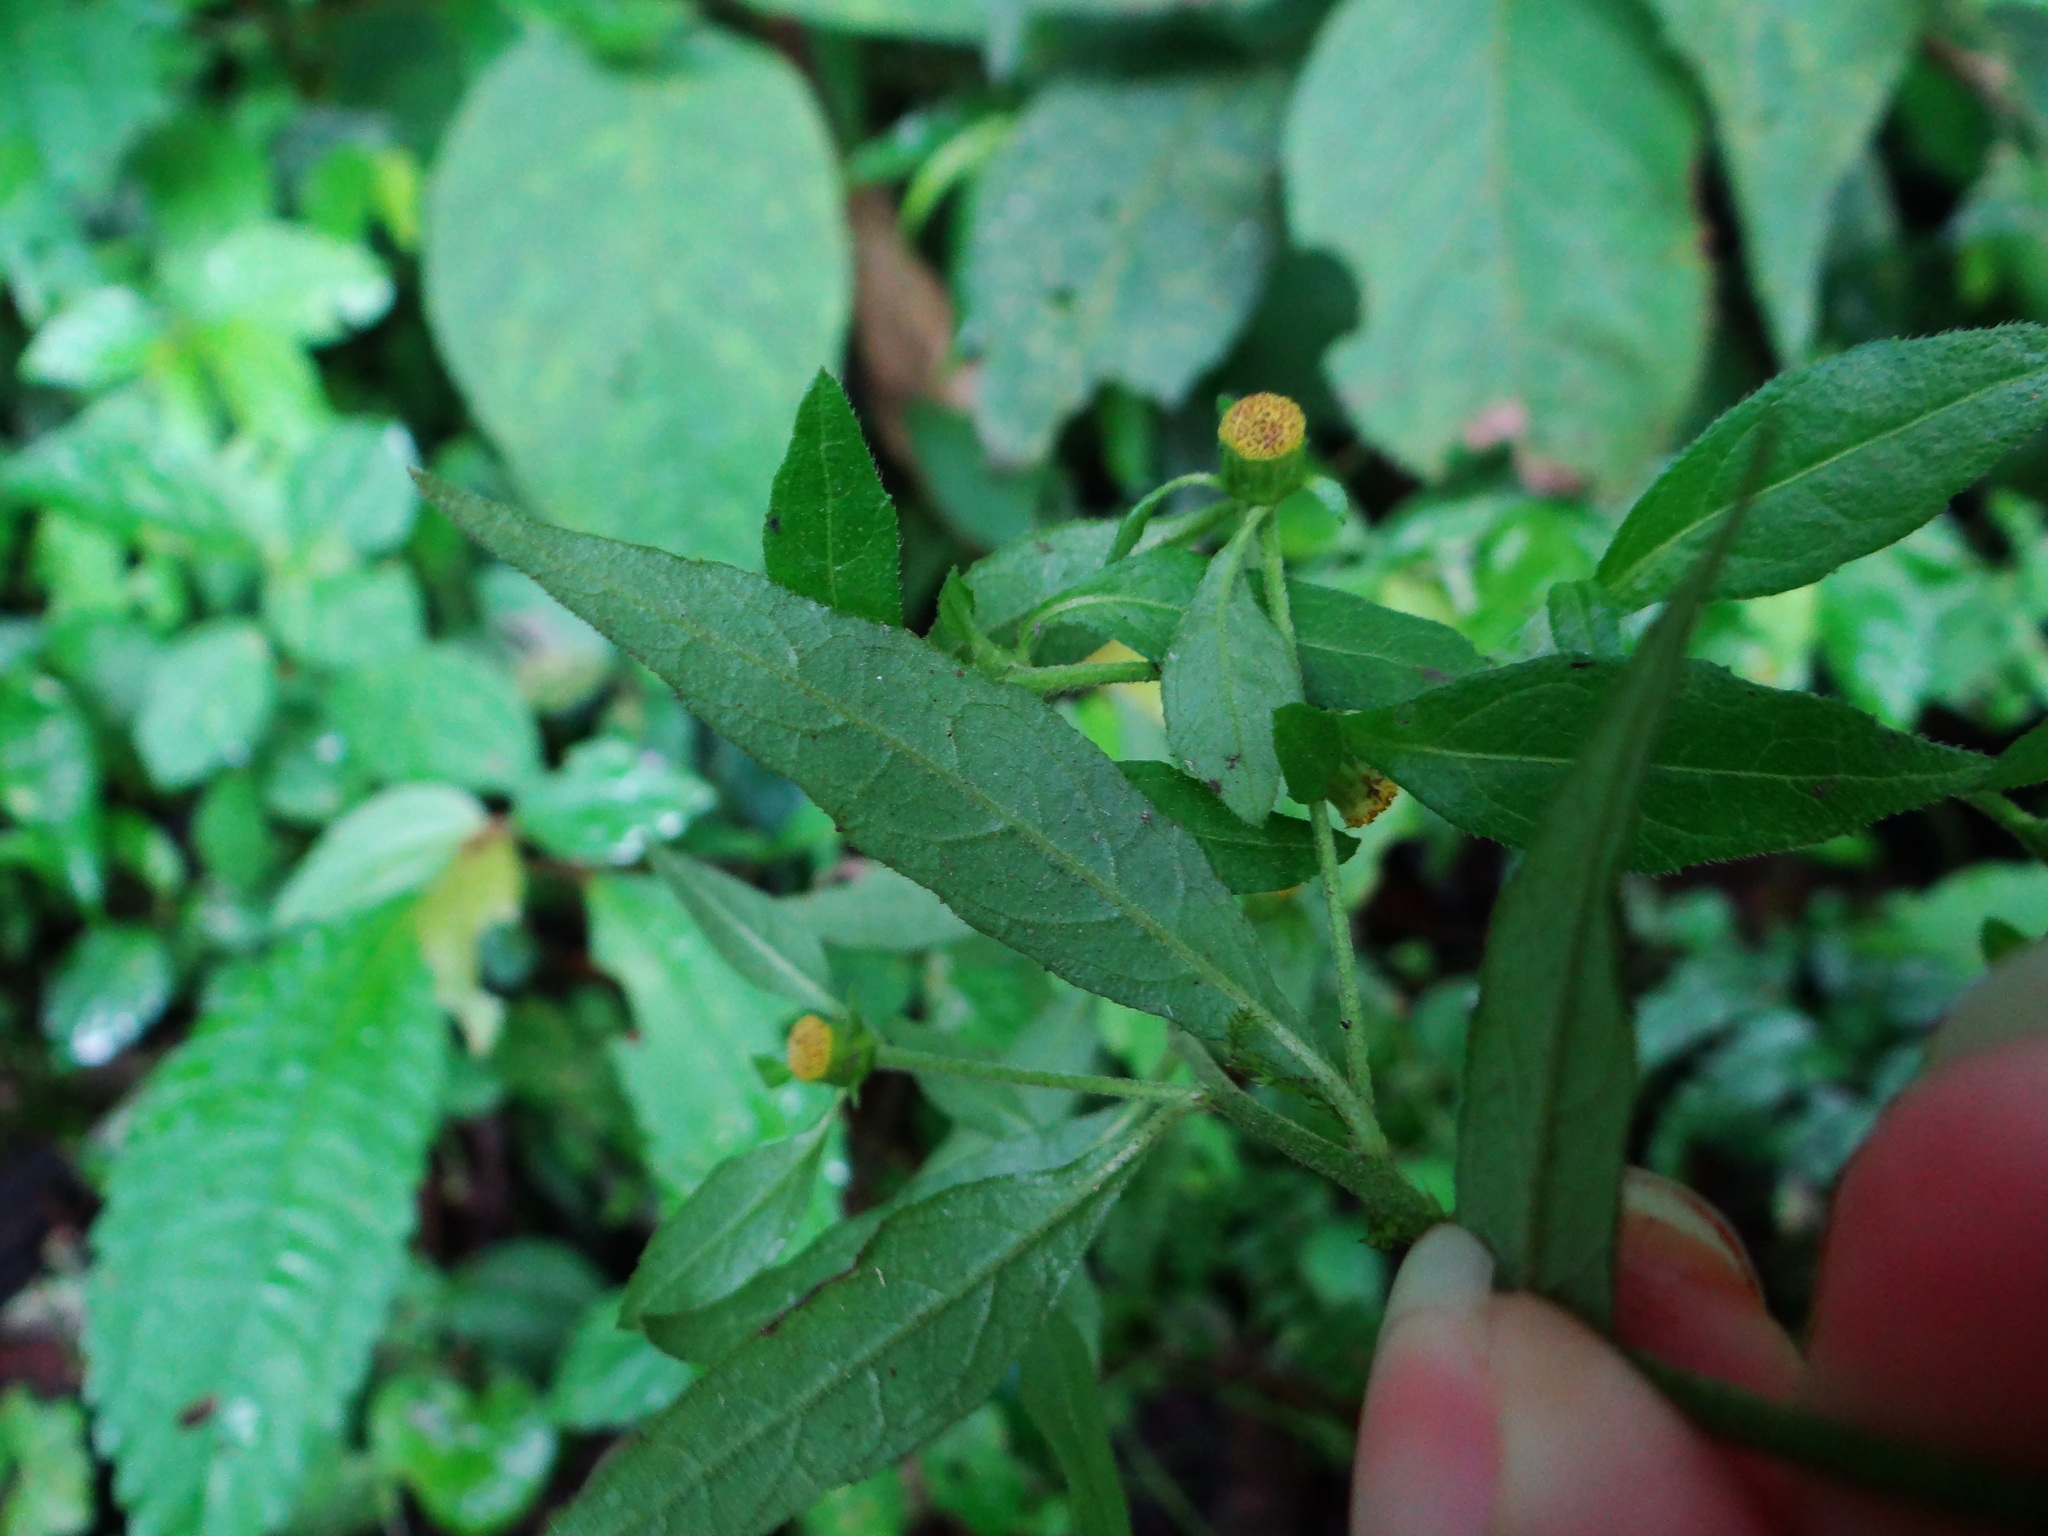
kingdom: Plantae
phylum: Tracheophyta
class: Magnoliopsida
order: Asterales
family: Asteraceae
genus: Carpesium
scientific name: Carpesium minus
